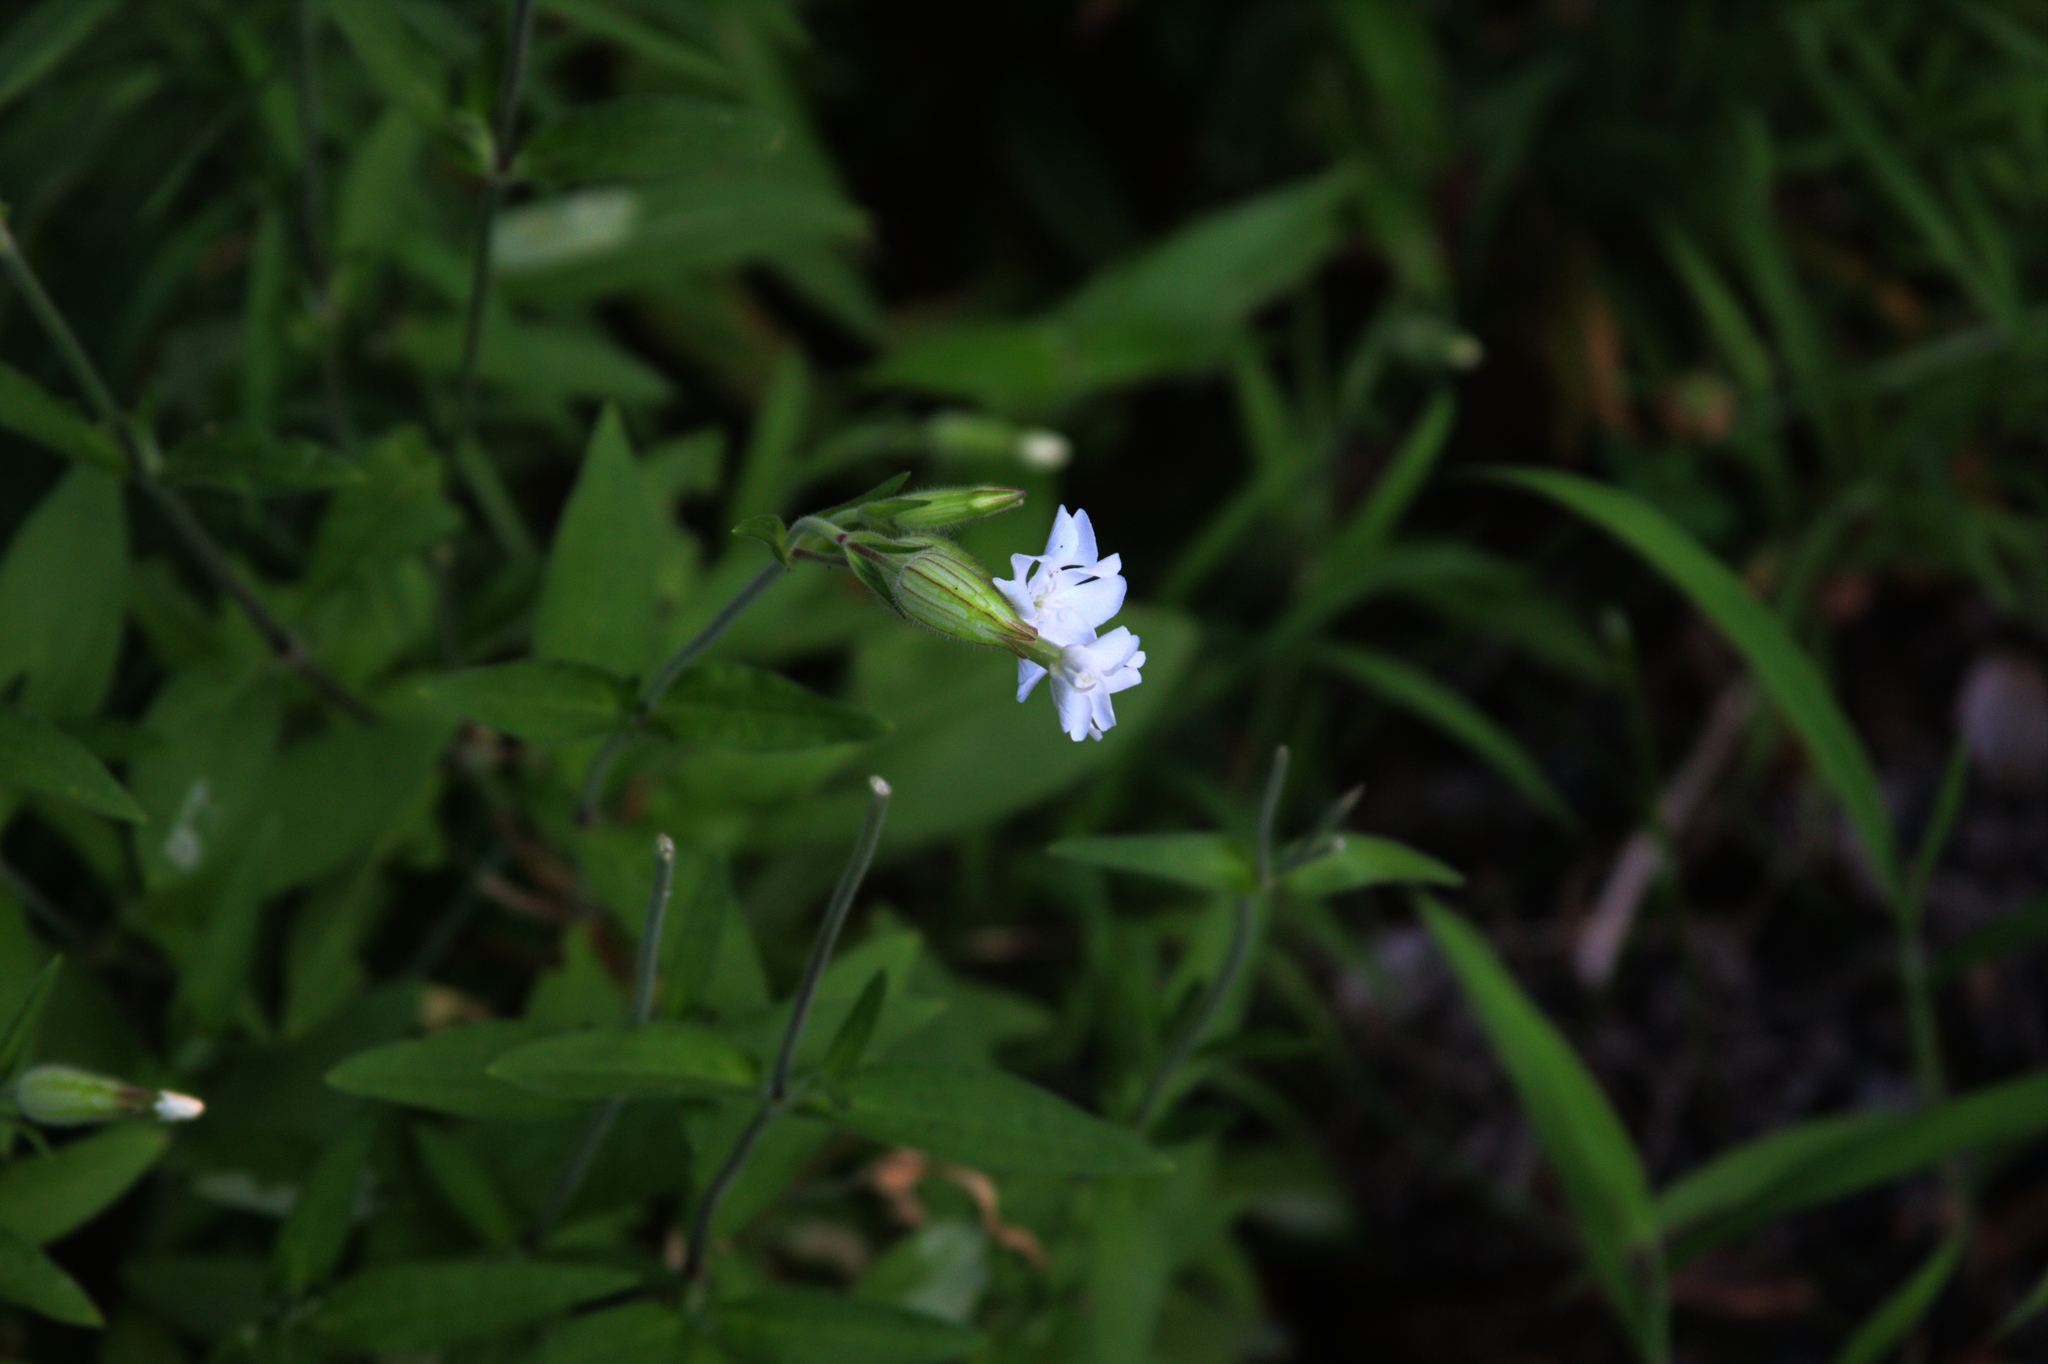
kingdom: Plantae
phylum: Tracheophyta
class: Magnoliopsida
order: Caryophyllales
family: Caryophyllaceae
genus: Silene
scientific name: Silene latifolia
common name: White campion
